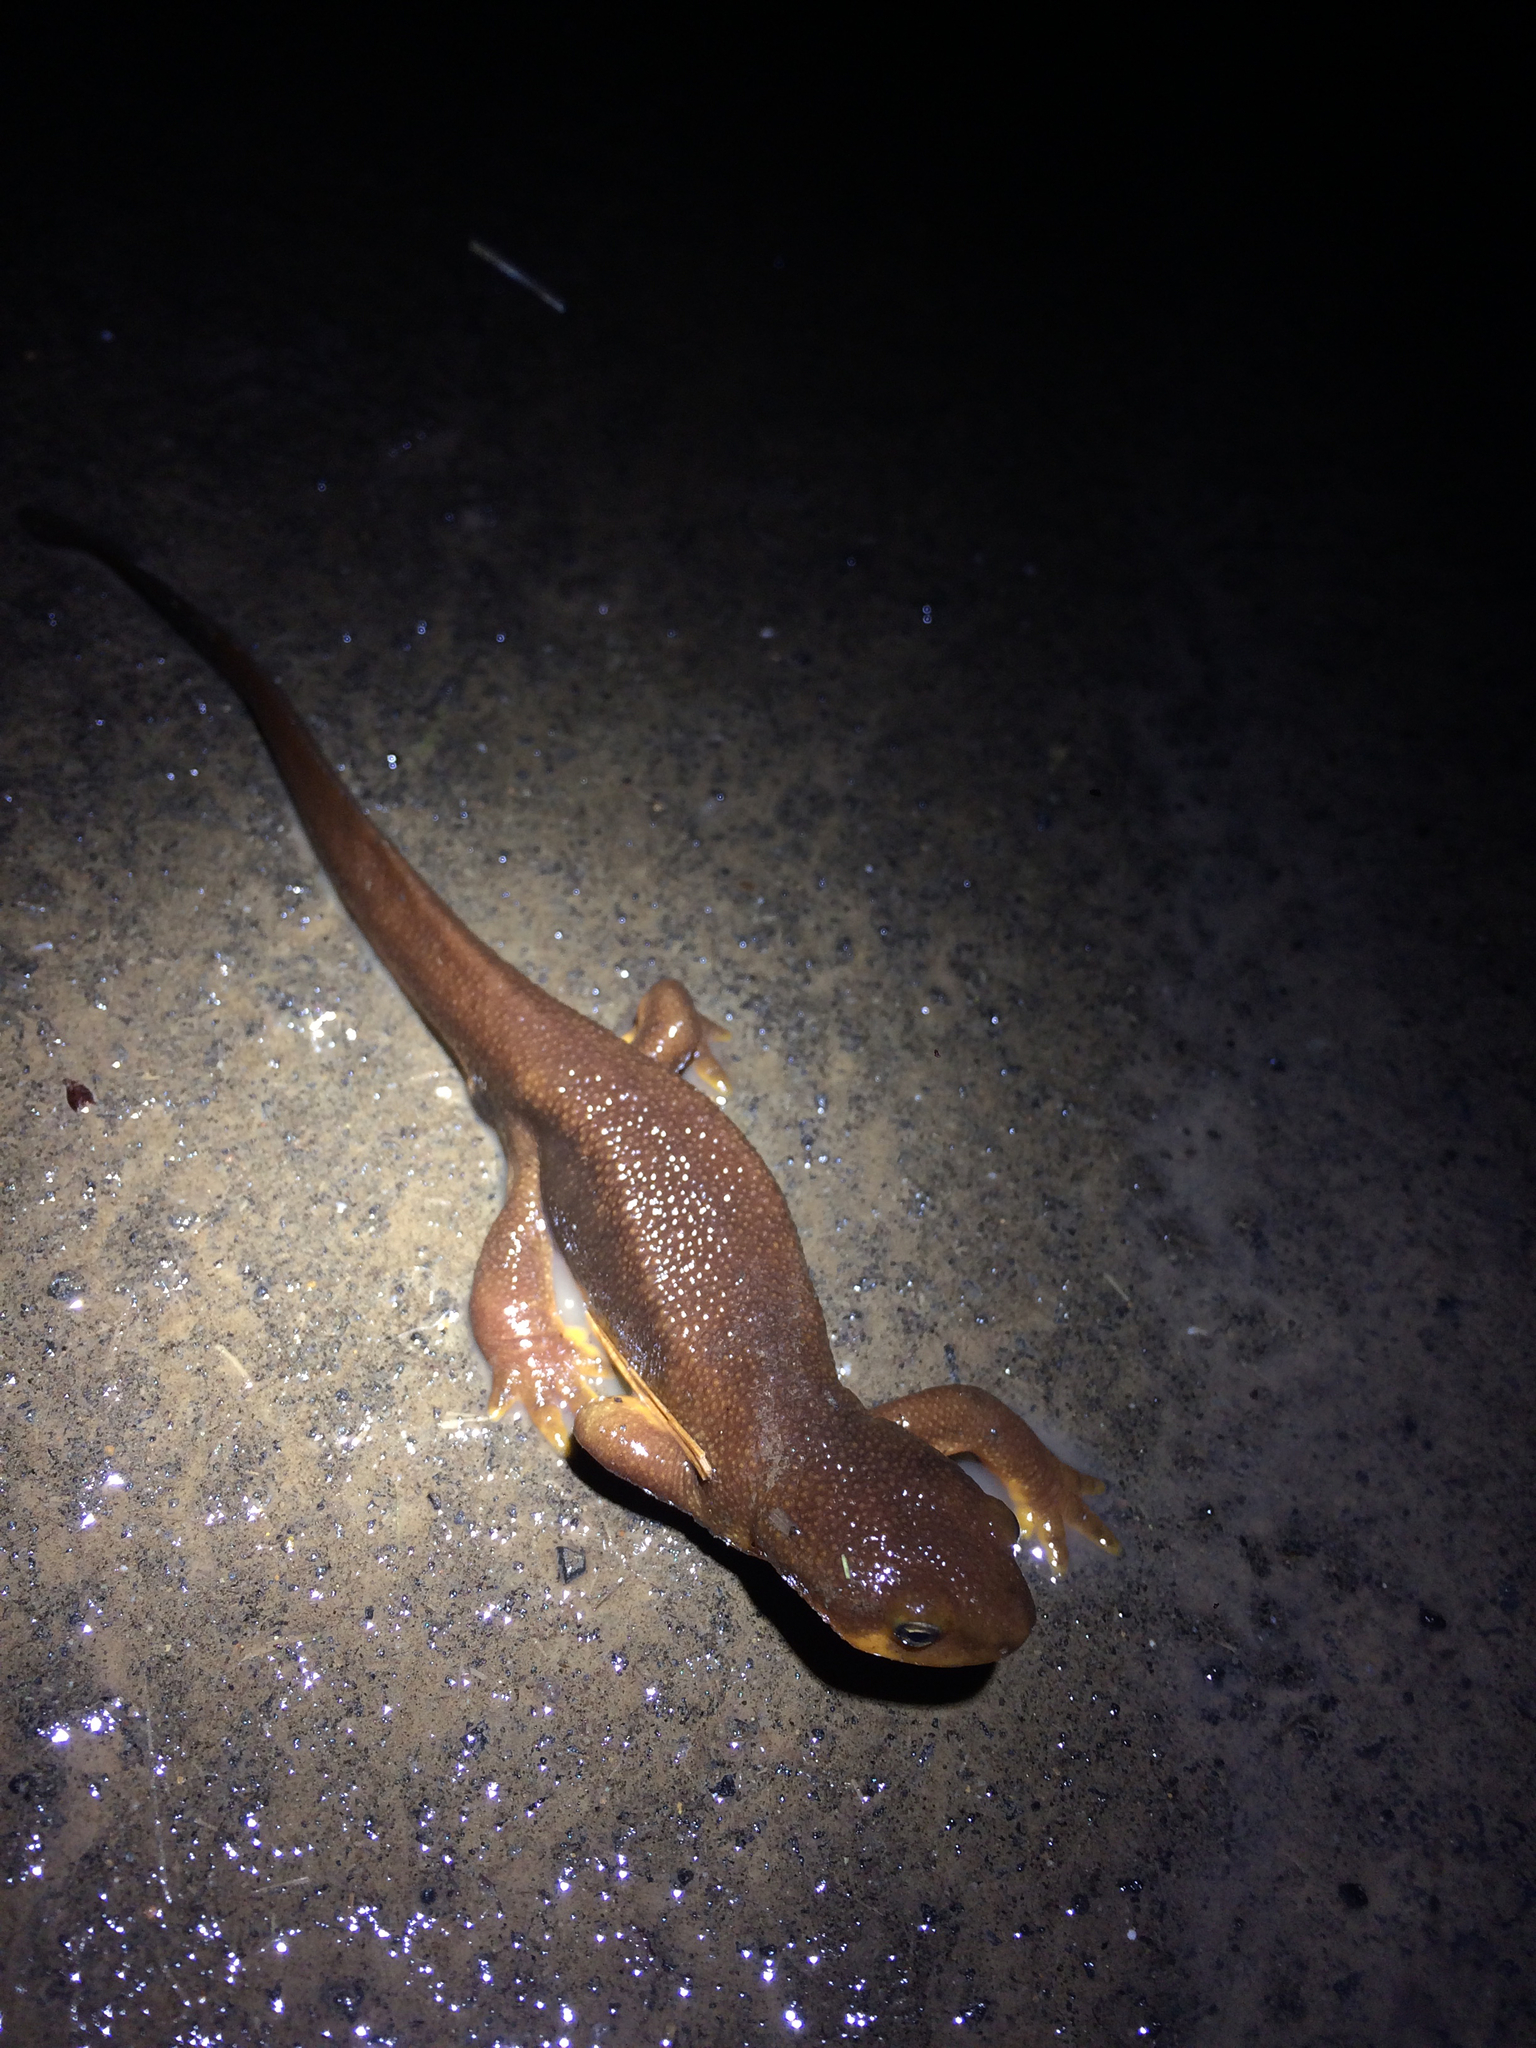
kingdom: Animalia
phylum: Chordata
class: Amphibia
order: Caudata
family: Salamandridae
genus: Taricha
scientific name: Taricha granulosa
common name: Roughskin newt
